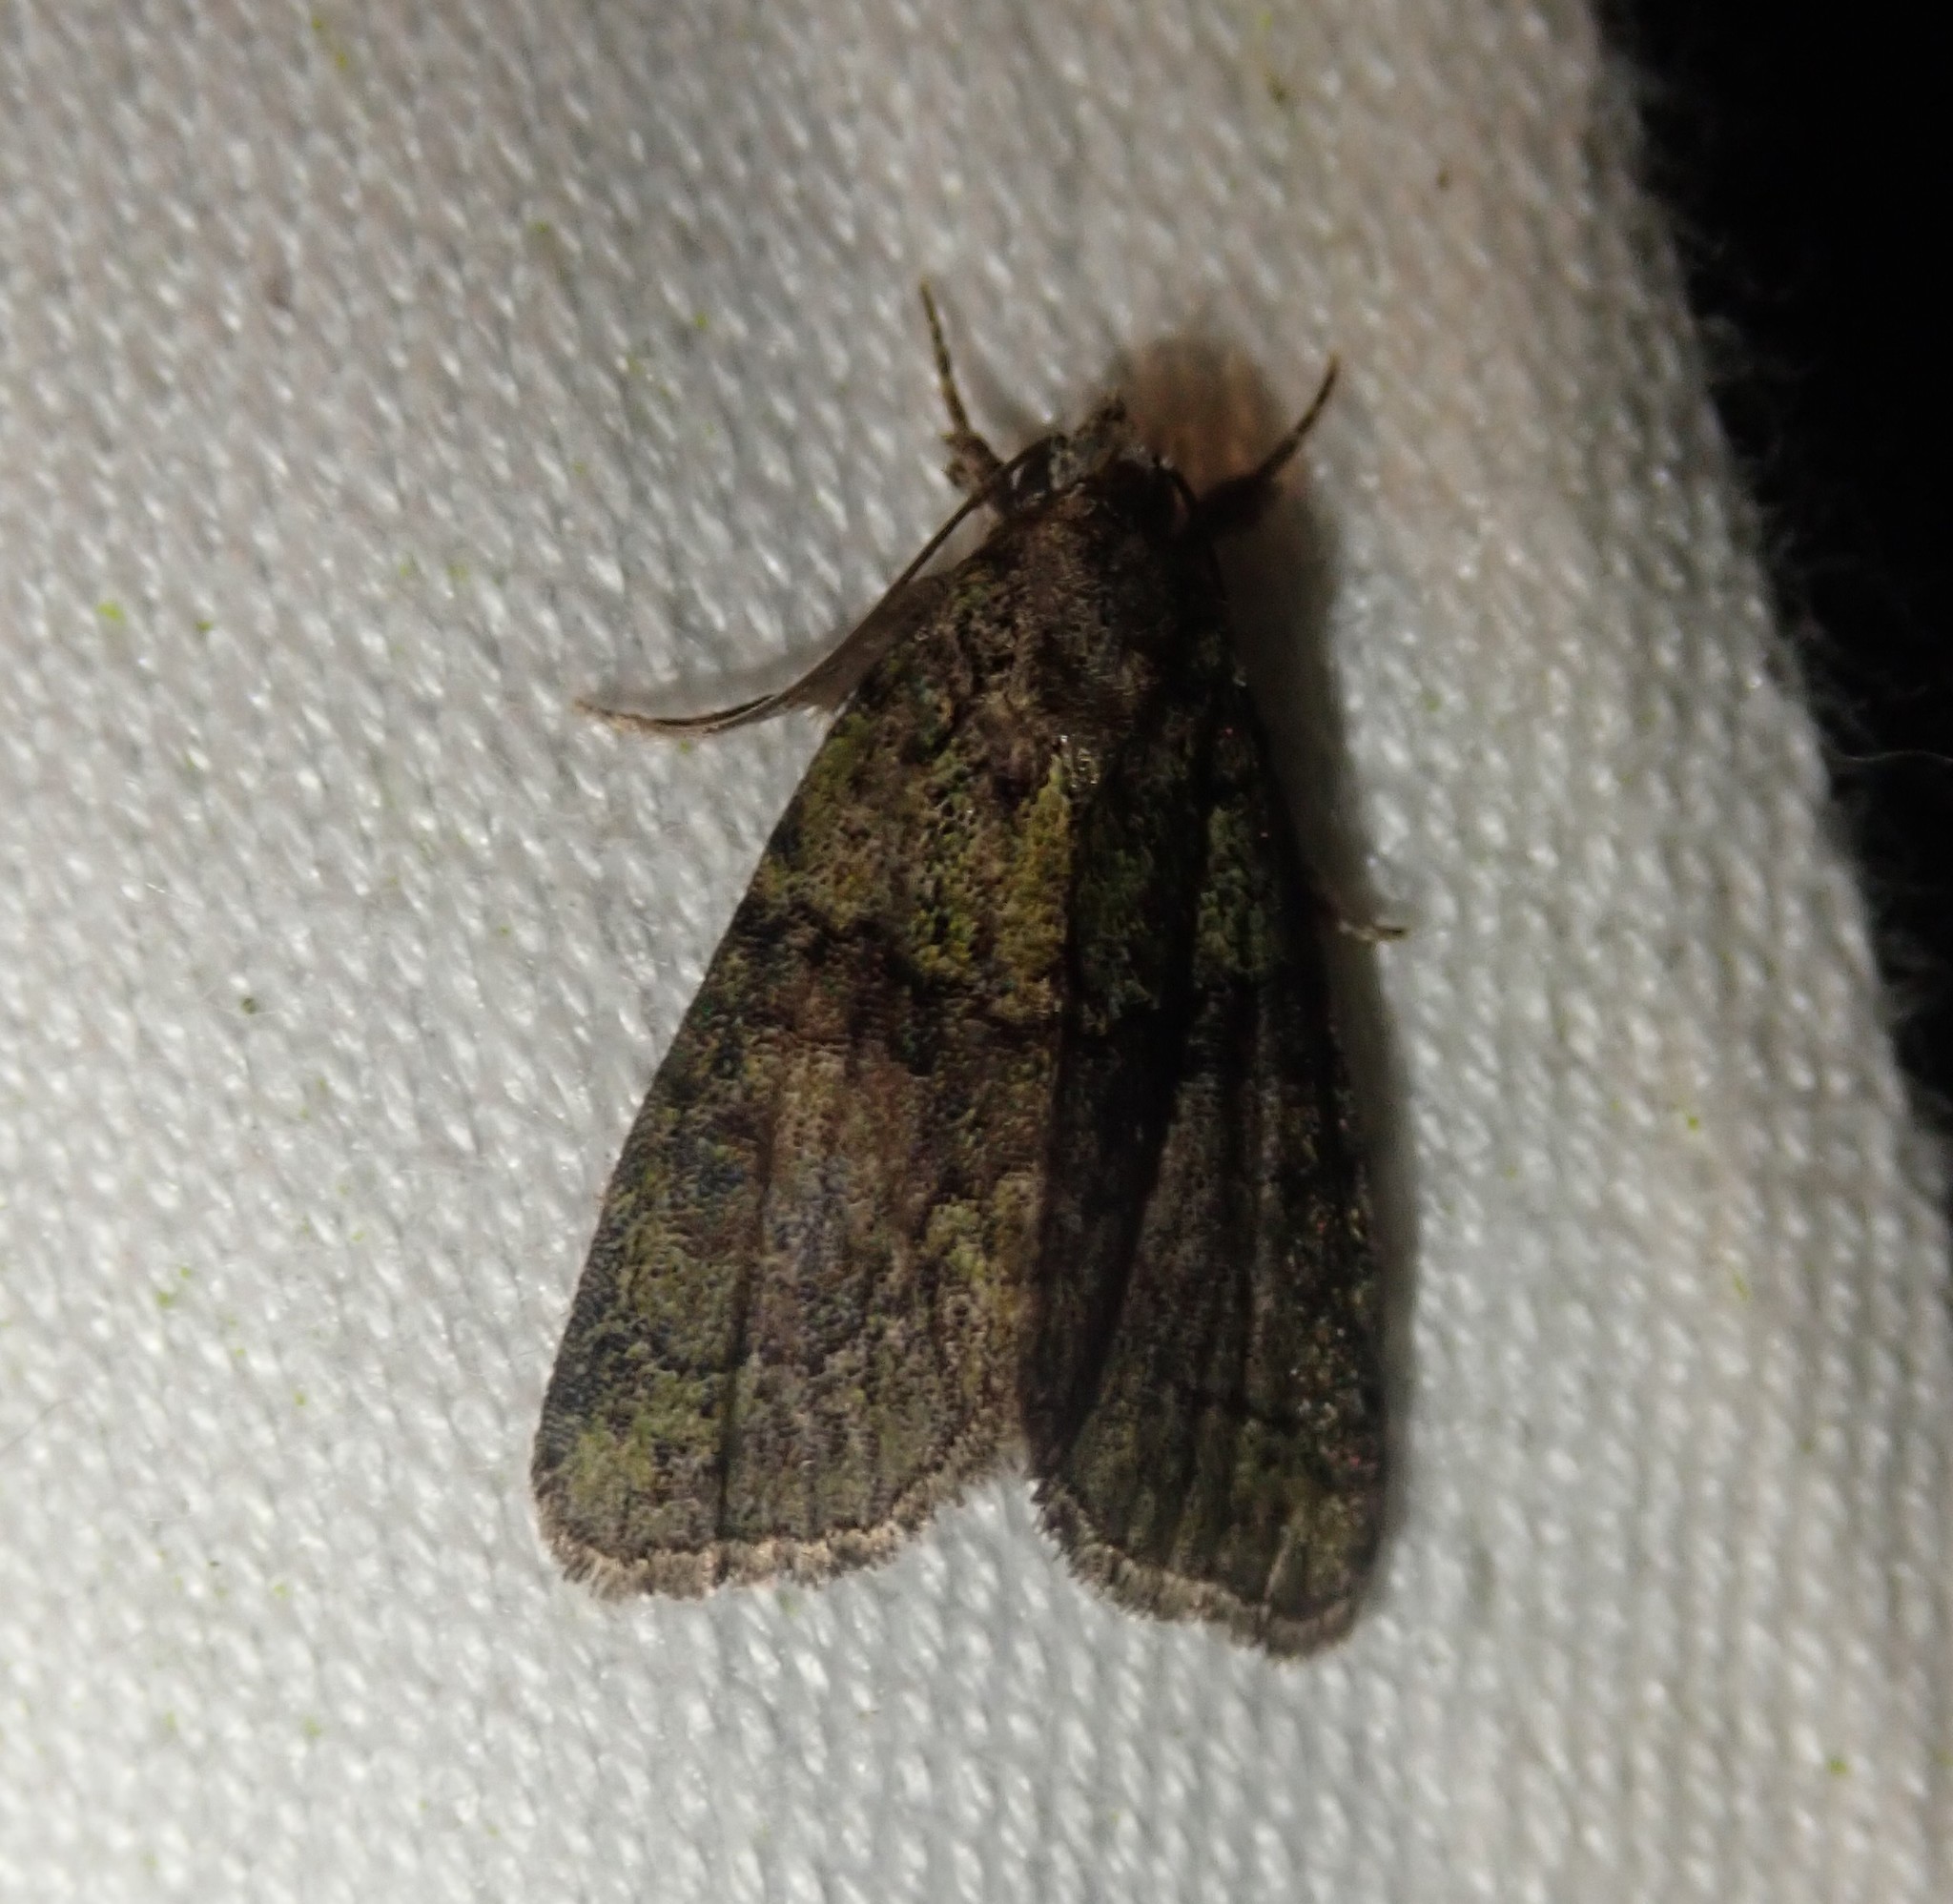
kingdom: Animalia
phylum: Arthropoda
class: Insecta
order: Lepidoptera
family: Noctuidae
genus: Cryphia
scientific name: Cryphia algae
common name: Tree-lichen beauty
